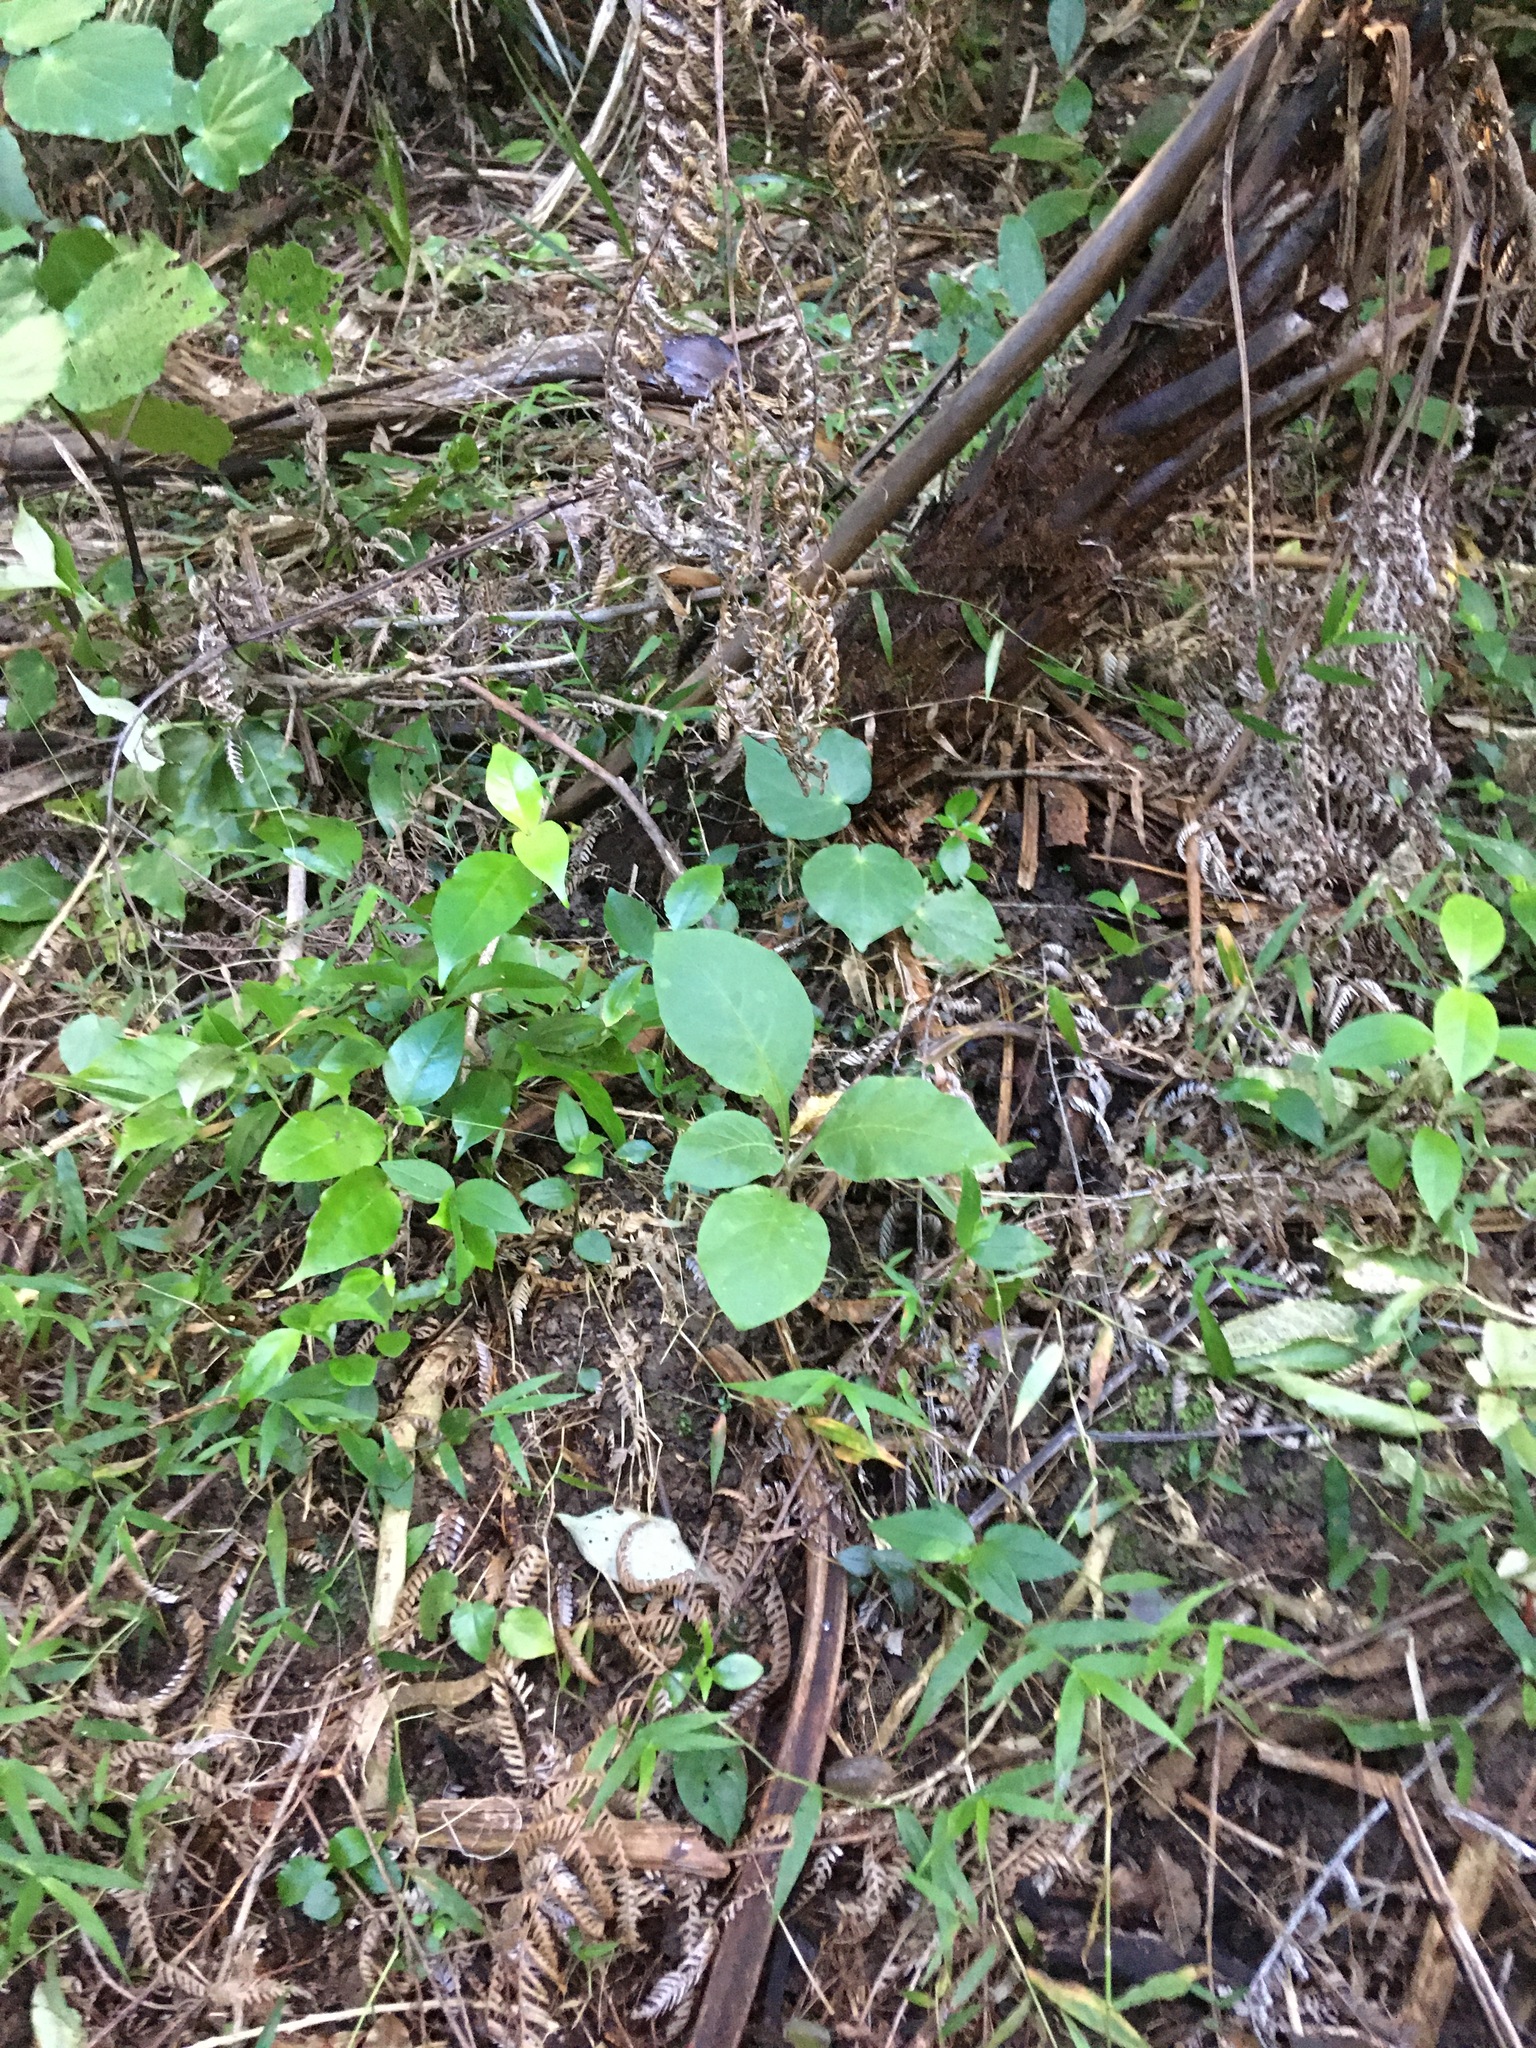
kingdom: Plantae
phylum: Tracheophyta
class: Magnoliopsida
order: Solanales
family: Solanaceae
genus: Solanum
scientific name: Solanum mauritianum
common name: Earleaf nightshade
